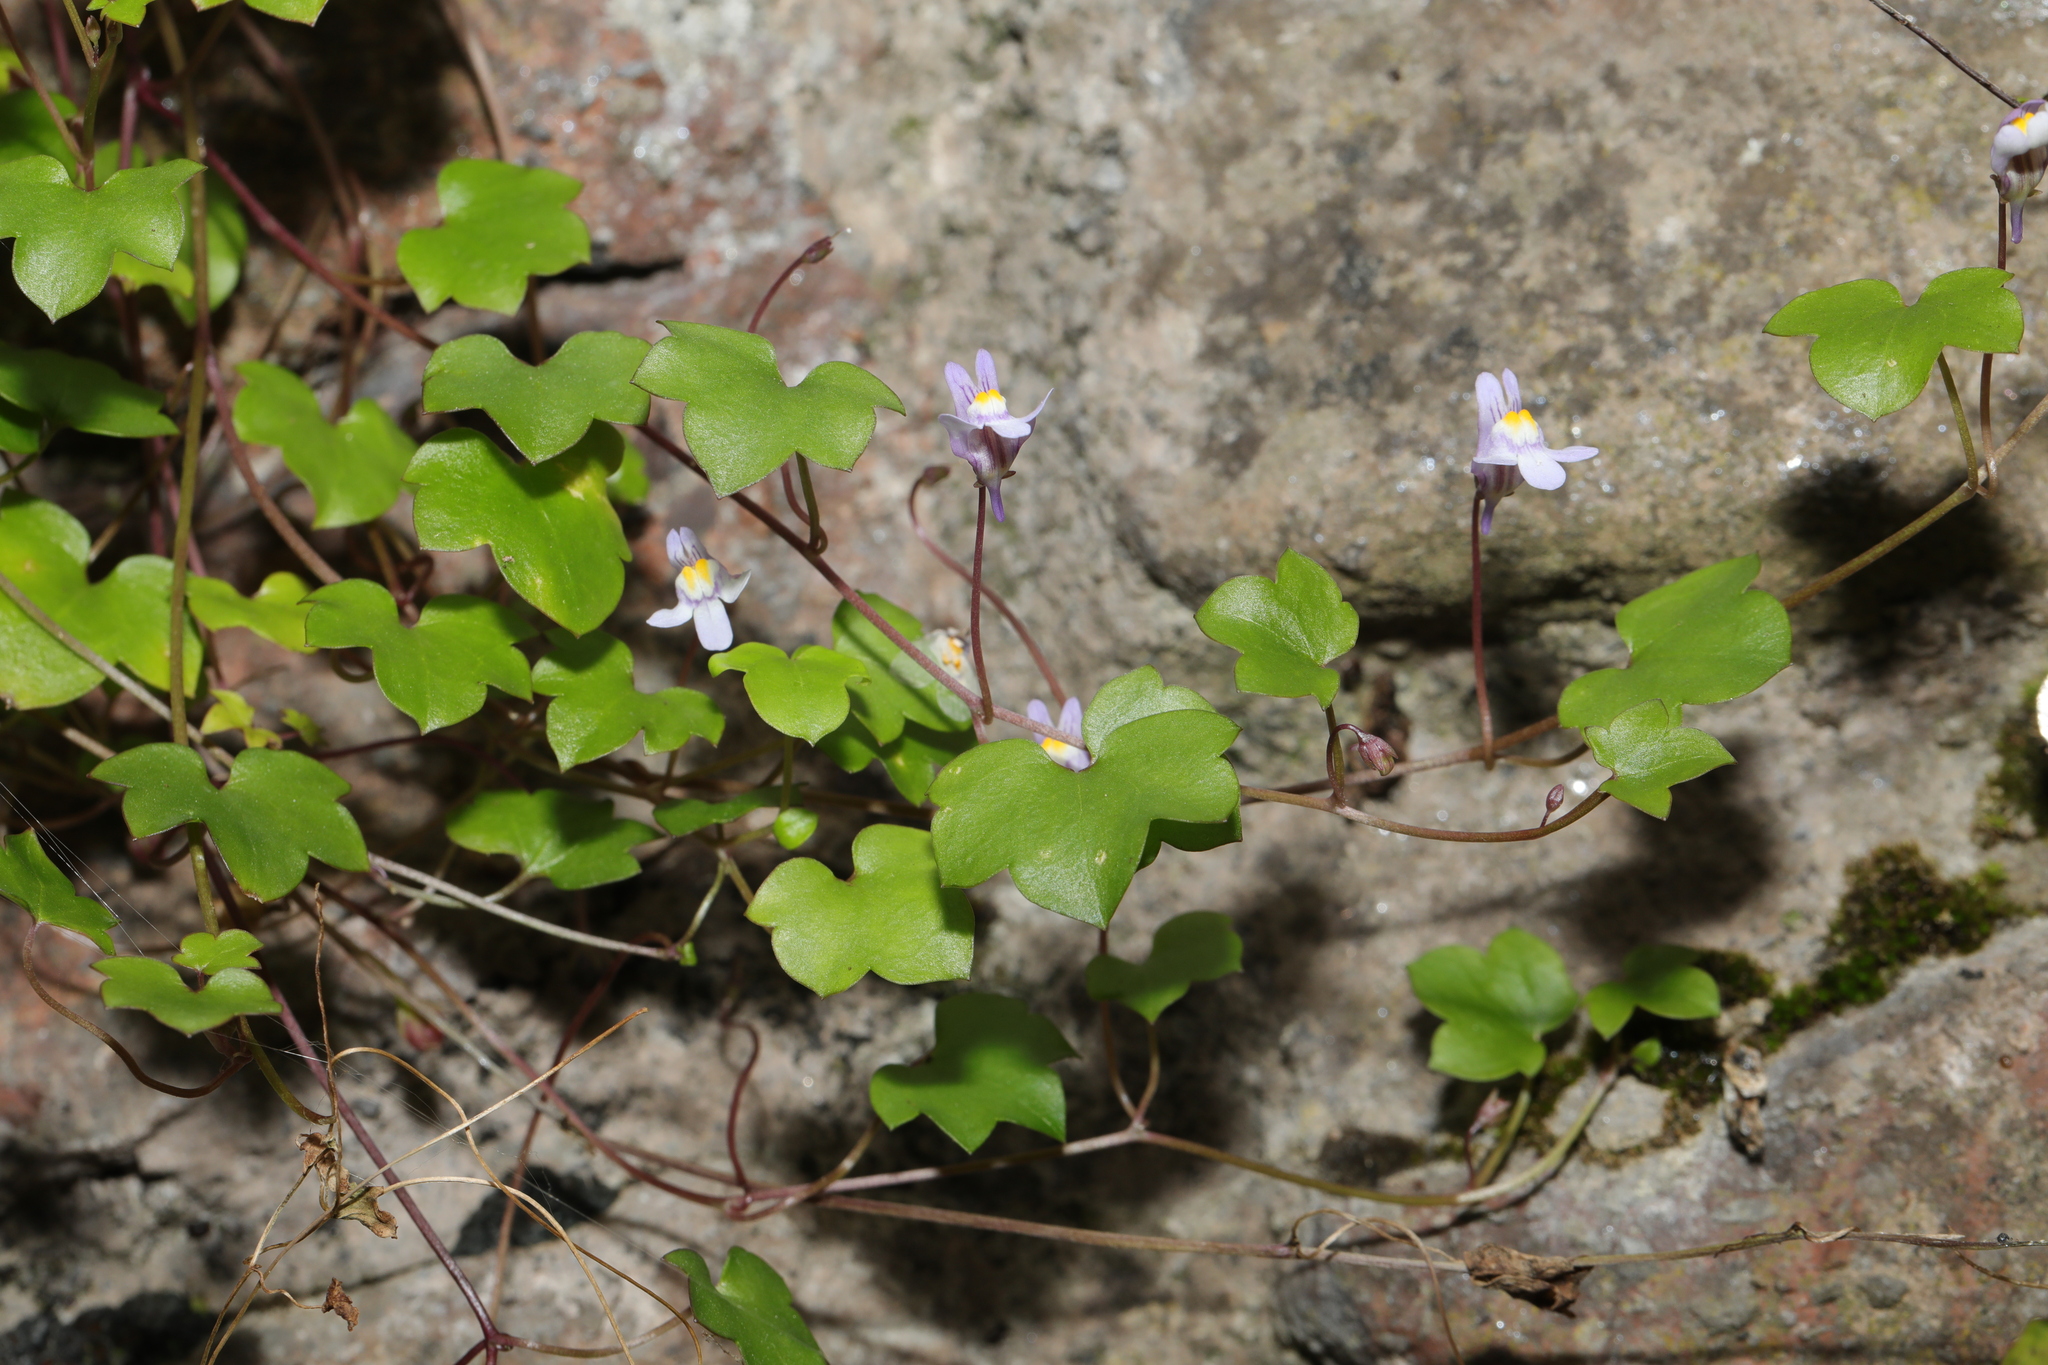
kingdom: Plantae
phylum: Tracheophyta
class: Magnoliopsida
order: Lamiales
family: Plantaginaceae
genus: Cymbalaria
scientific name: Cymbalaria muralis
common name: Ivy-leaved toadflax
